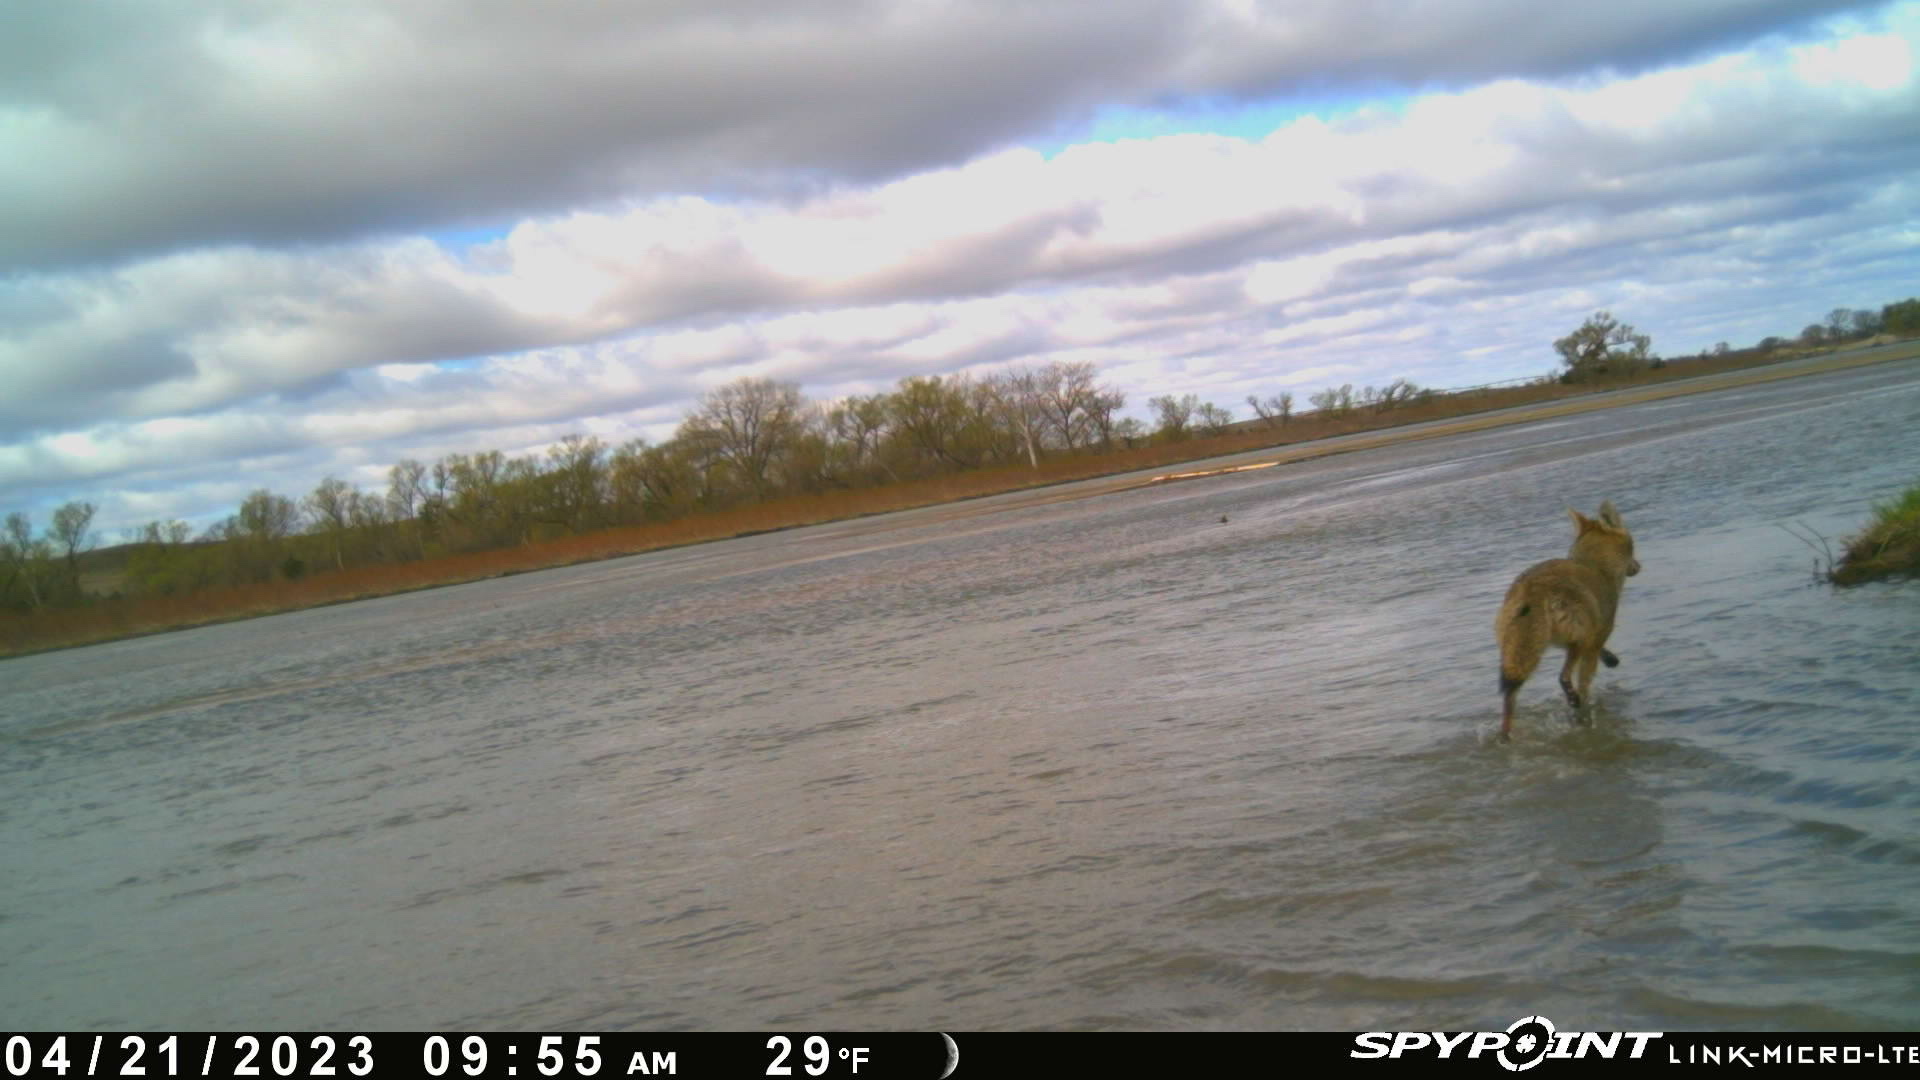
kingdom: Animalia
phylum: Chordata
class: Mammalia
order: Carnivora
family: Canidae
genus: Canis
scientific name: Canis latrans
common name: Coyote
